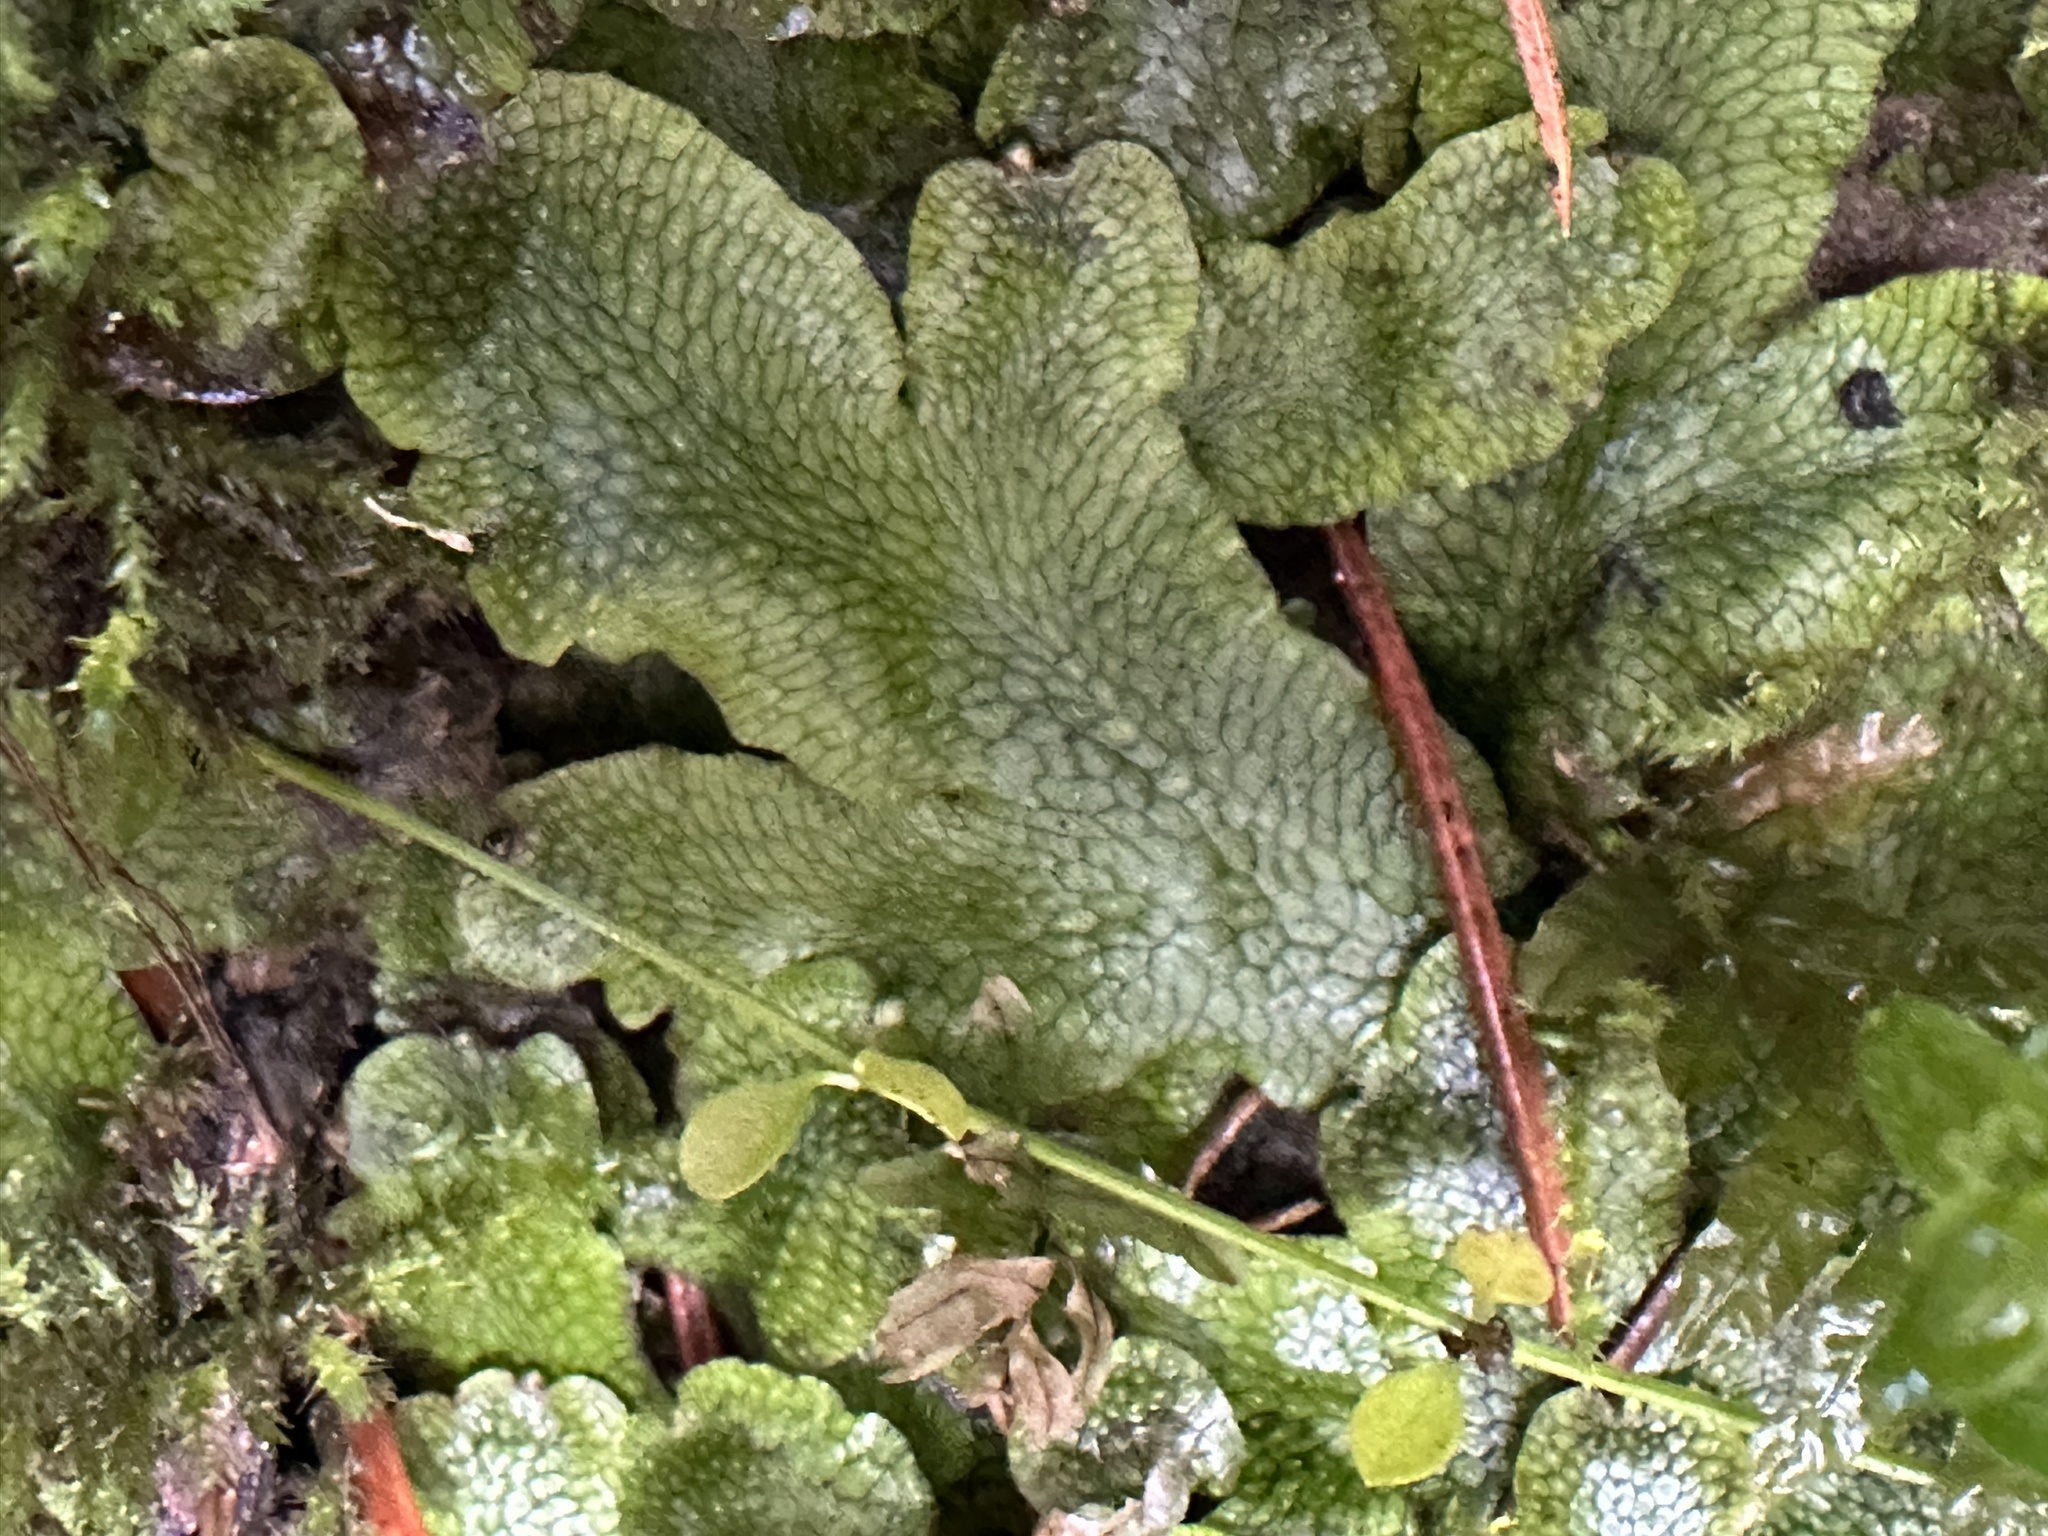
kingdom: Plantae
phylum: Marchantiophyta
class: Marchantiopsida
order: Marchantiales
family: Conocephalaceae
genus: Conocephalum
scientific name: Conocephalum salebrosum
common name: Cat-tongue liverwort
